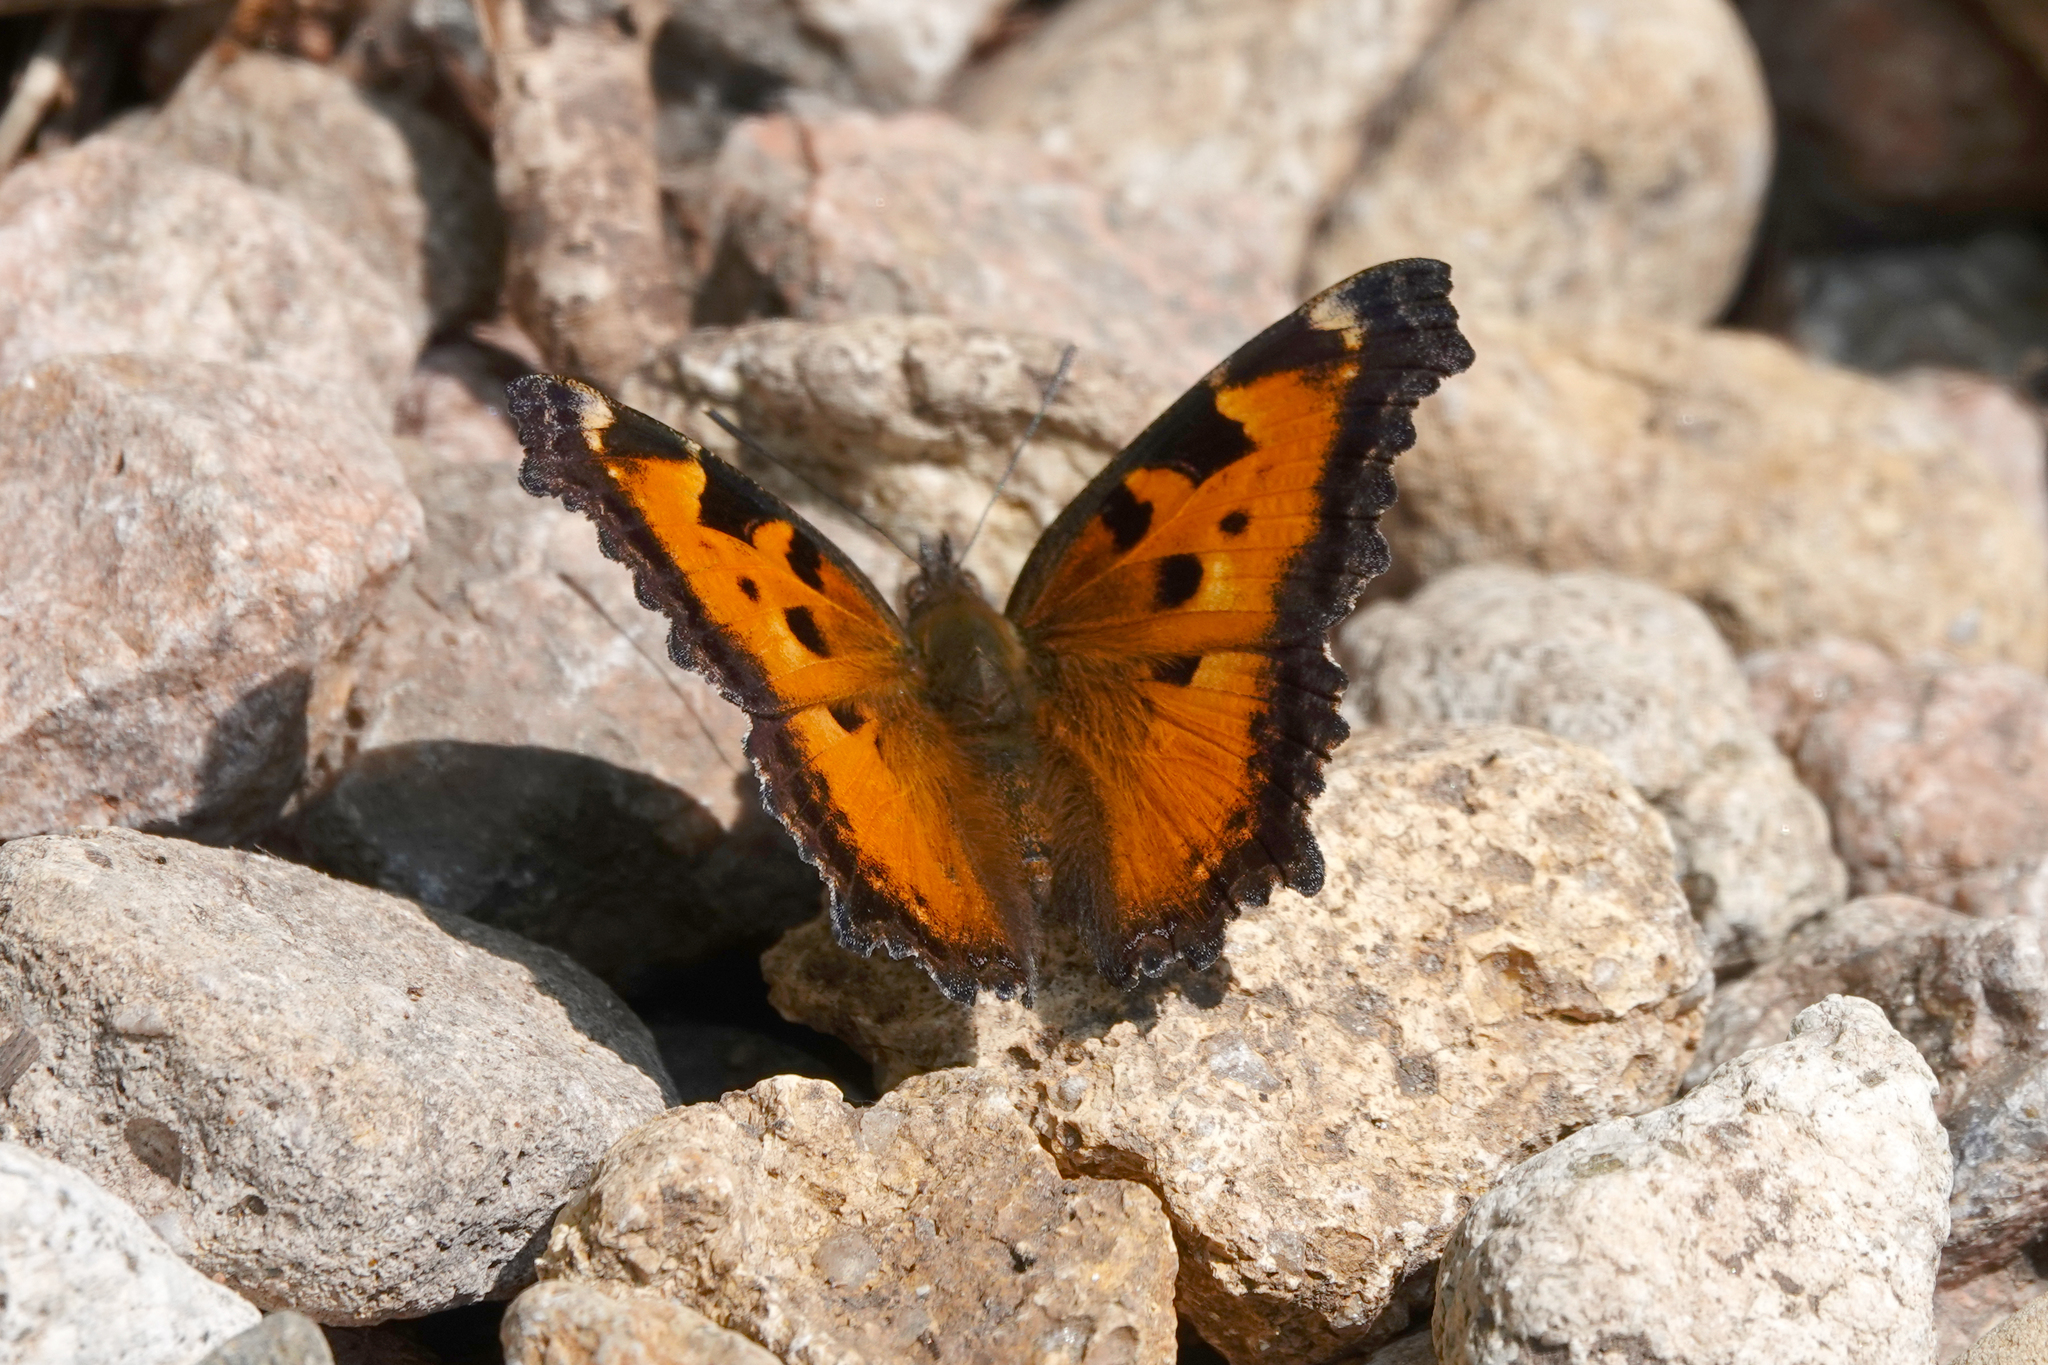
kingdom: Animalia
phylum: Arthropoda
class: Insecta
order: Lepidoptera
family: Nymphalidae
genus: Nymphalis
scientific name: Nymphalis californica
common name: California tortoiseshell
